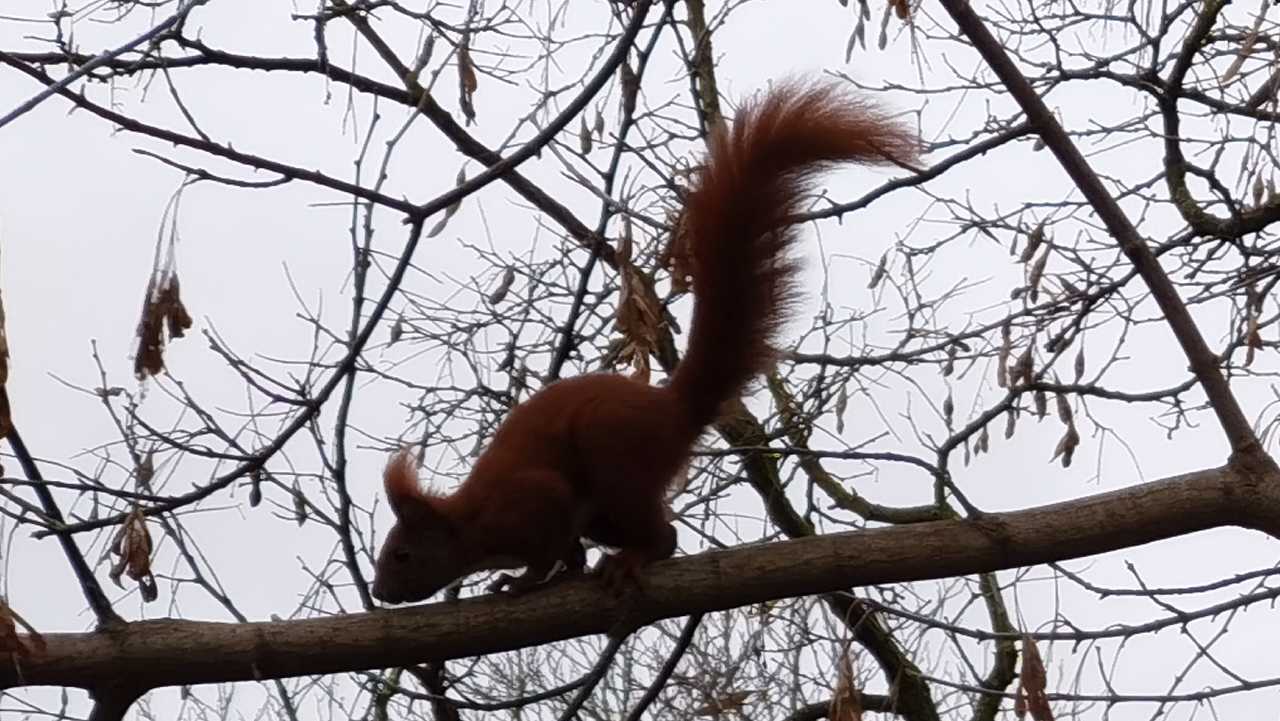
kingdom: Animalia
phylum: Chordata
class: Mammalia
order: Rodentia
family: Sciuridae
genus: Sciurus
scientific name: Sciurus vulgaris
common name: Eurasian red squirrel
